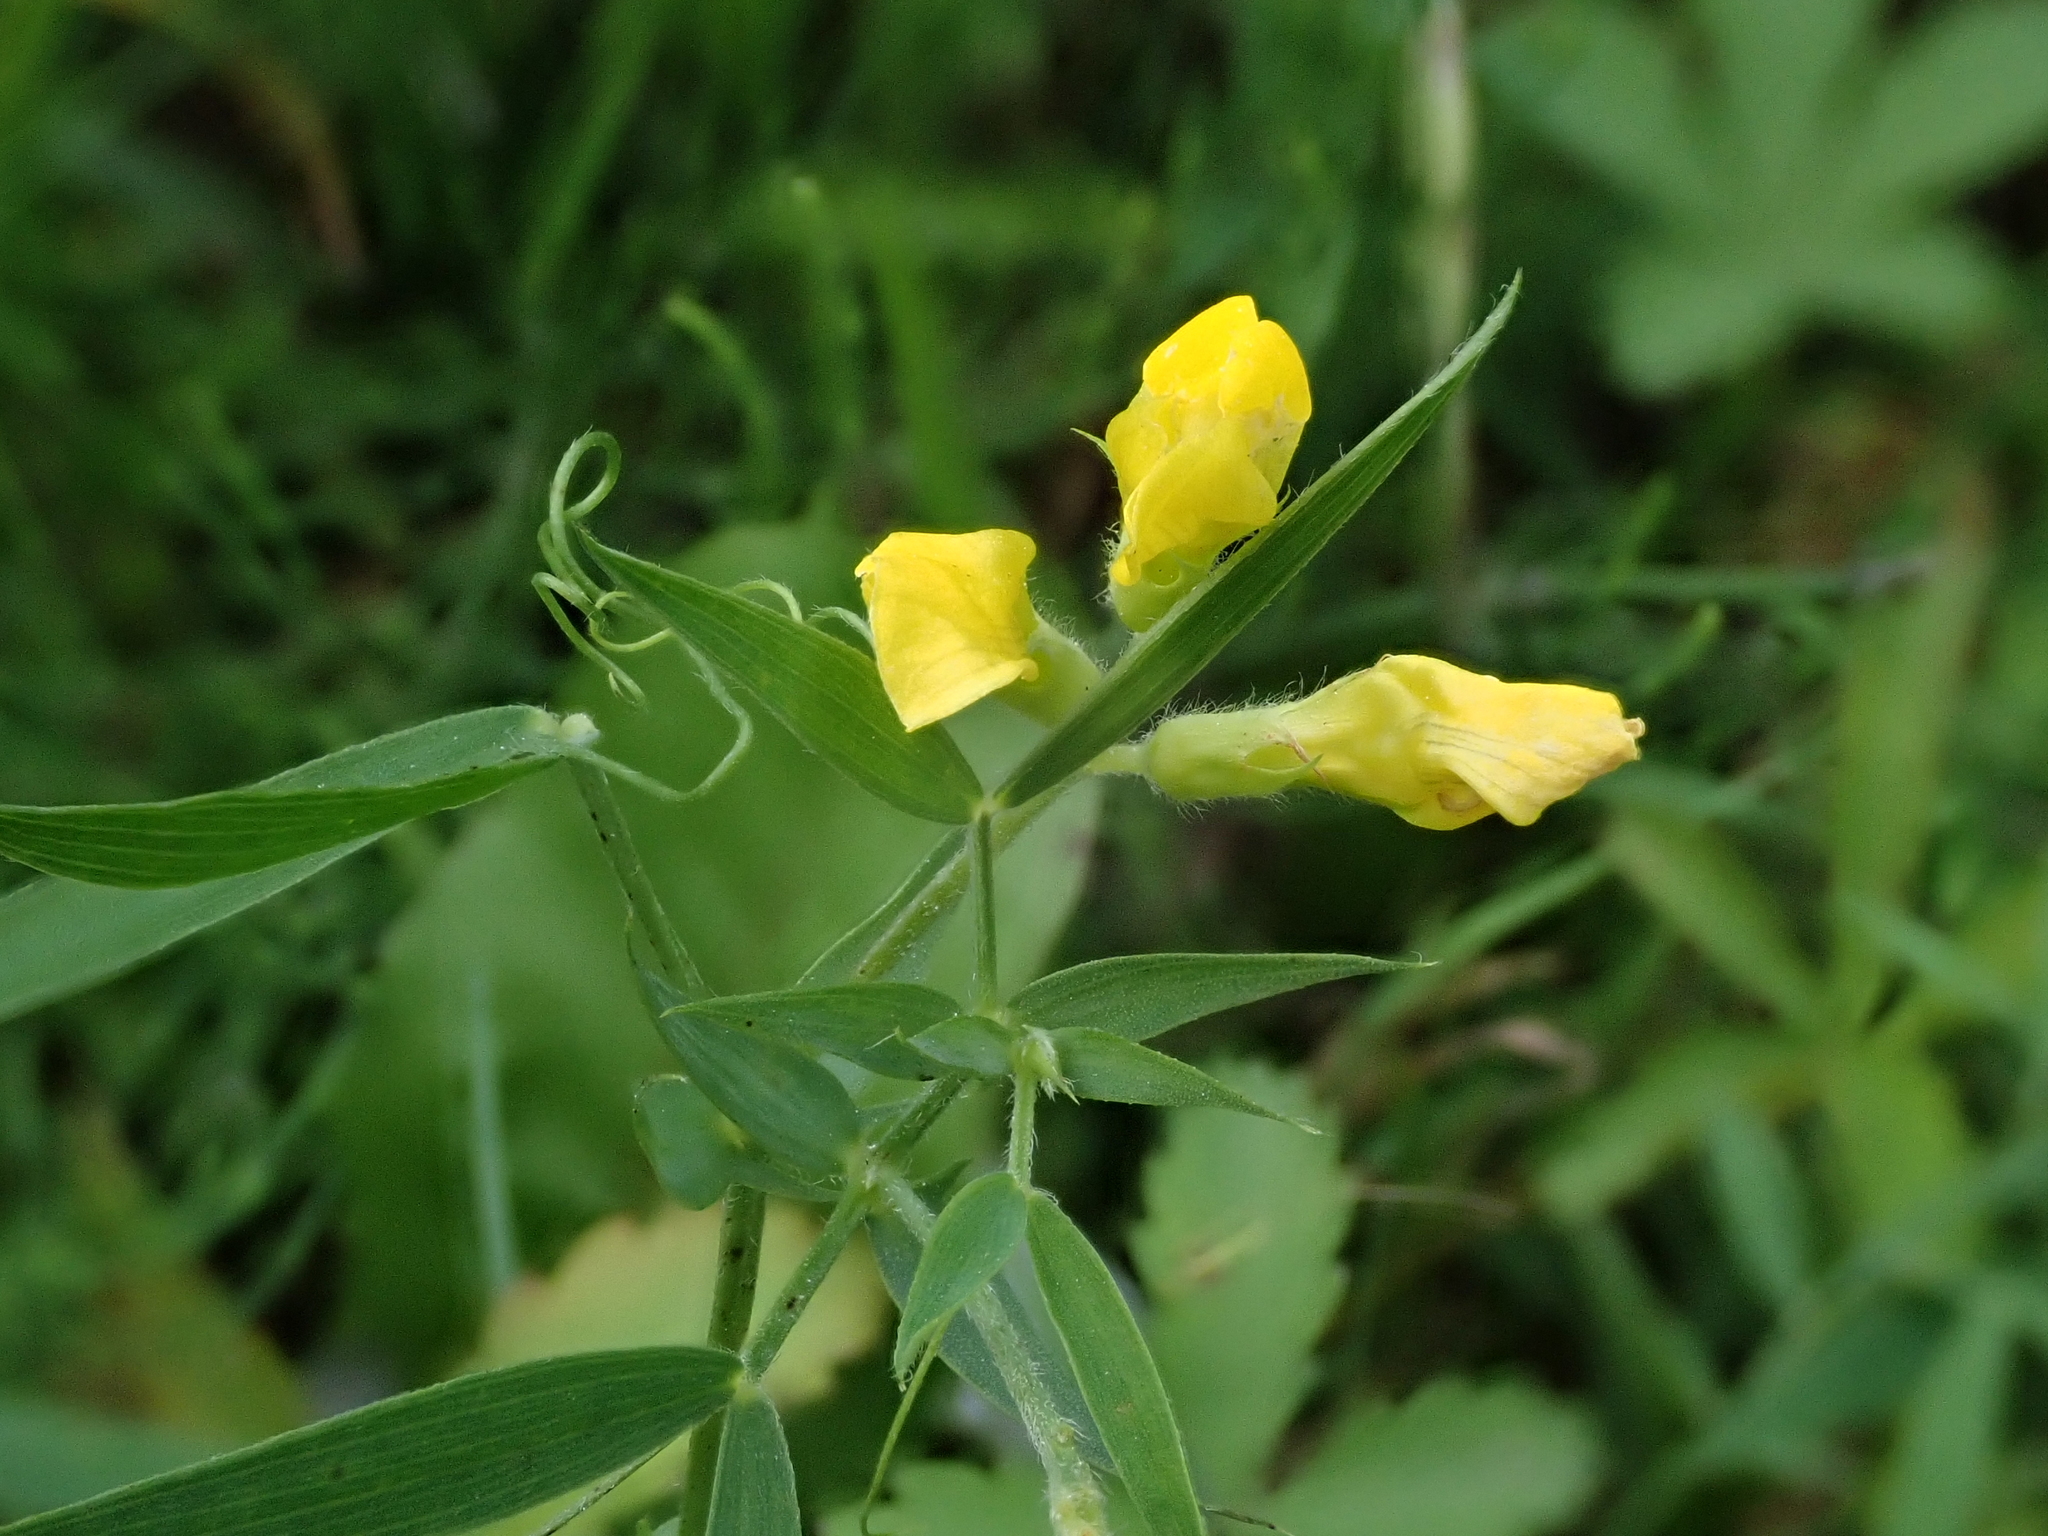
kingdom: Plantae
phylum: Tracheophyta
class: Magnoliopsida
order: Fabales
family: Fabaceae
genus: Lathyrus
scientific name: Lathyrus pratensis
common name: Meadow vetchling
